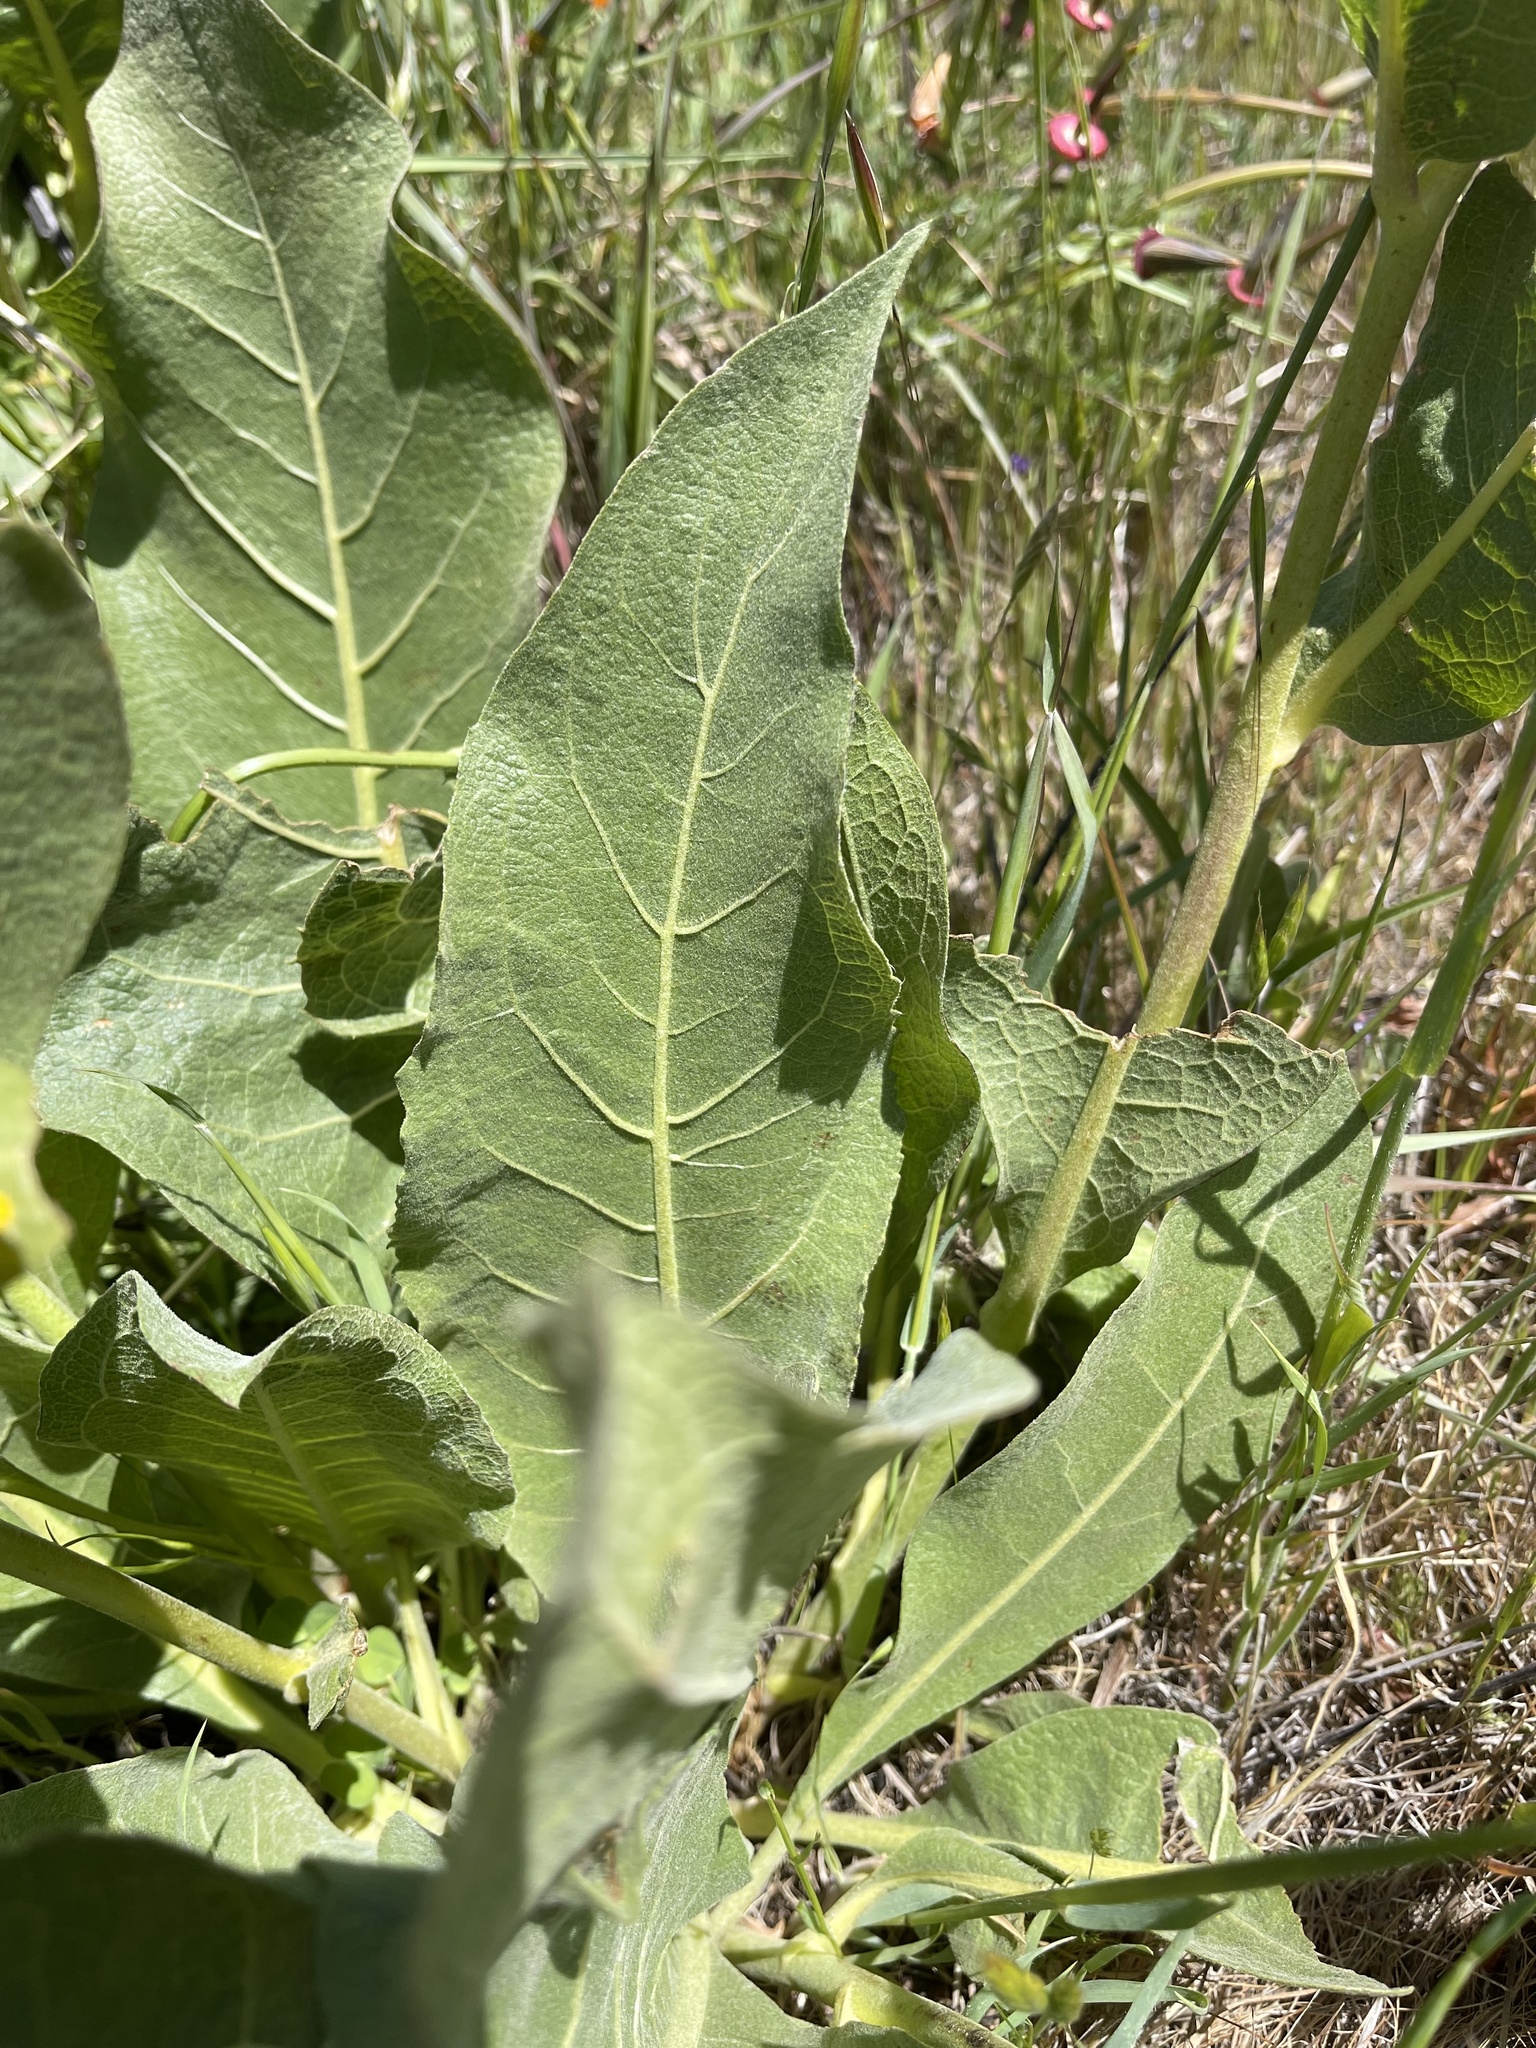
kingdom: Plantae
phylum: Tracheophyta
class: Magnoliopsida
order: Asterales
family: Asteraceae
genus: Wyethia
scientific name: Wyethia glabra
